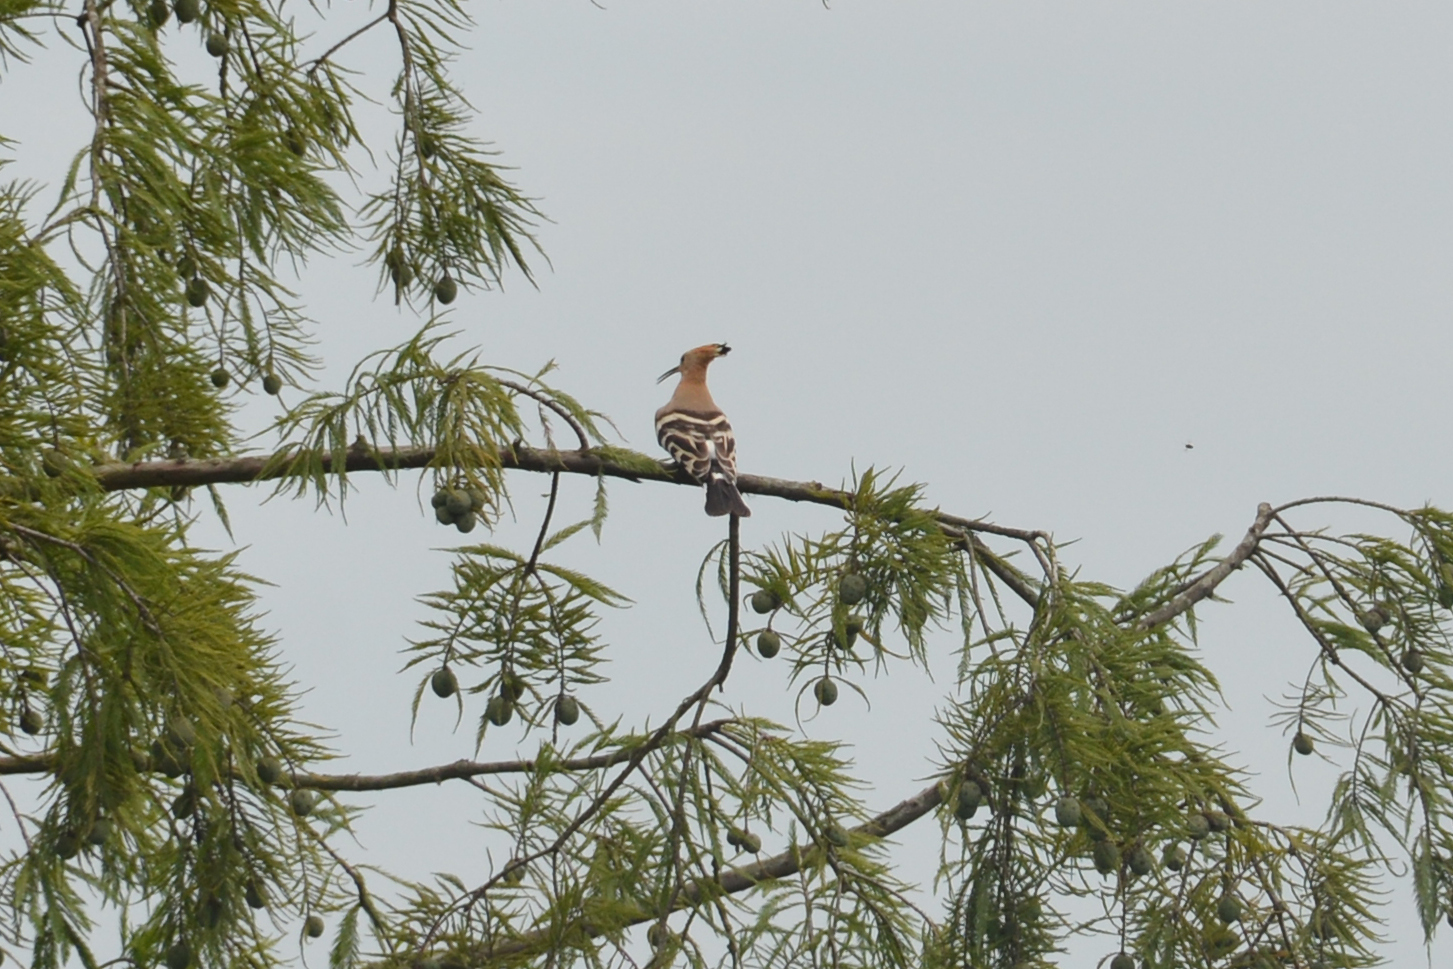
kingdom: Animalia
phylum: Chordata
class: Aves
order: Bucerotiformes
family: Upupidae
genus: Upupa
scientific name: Upupa epops
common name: Eurasian hoopoe
